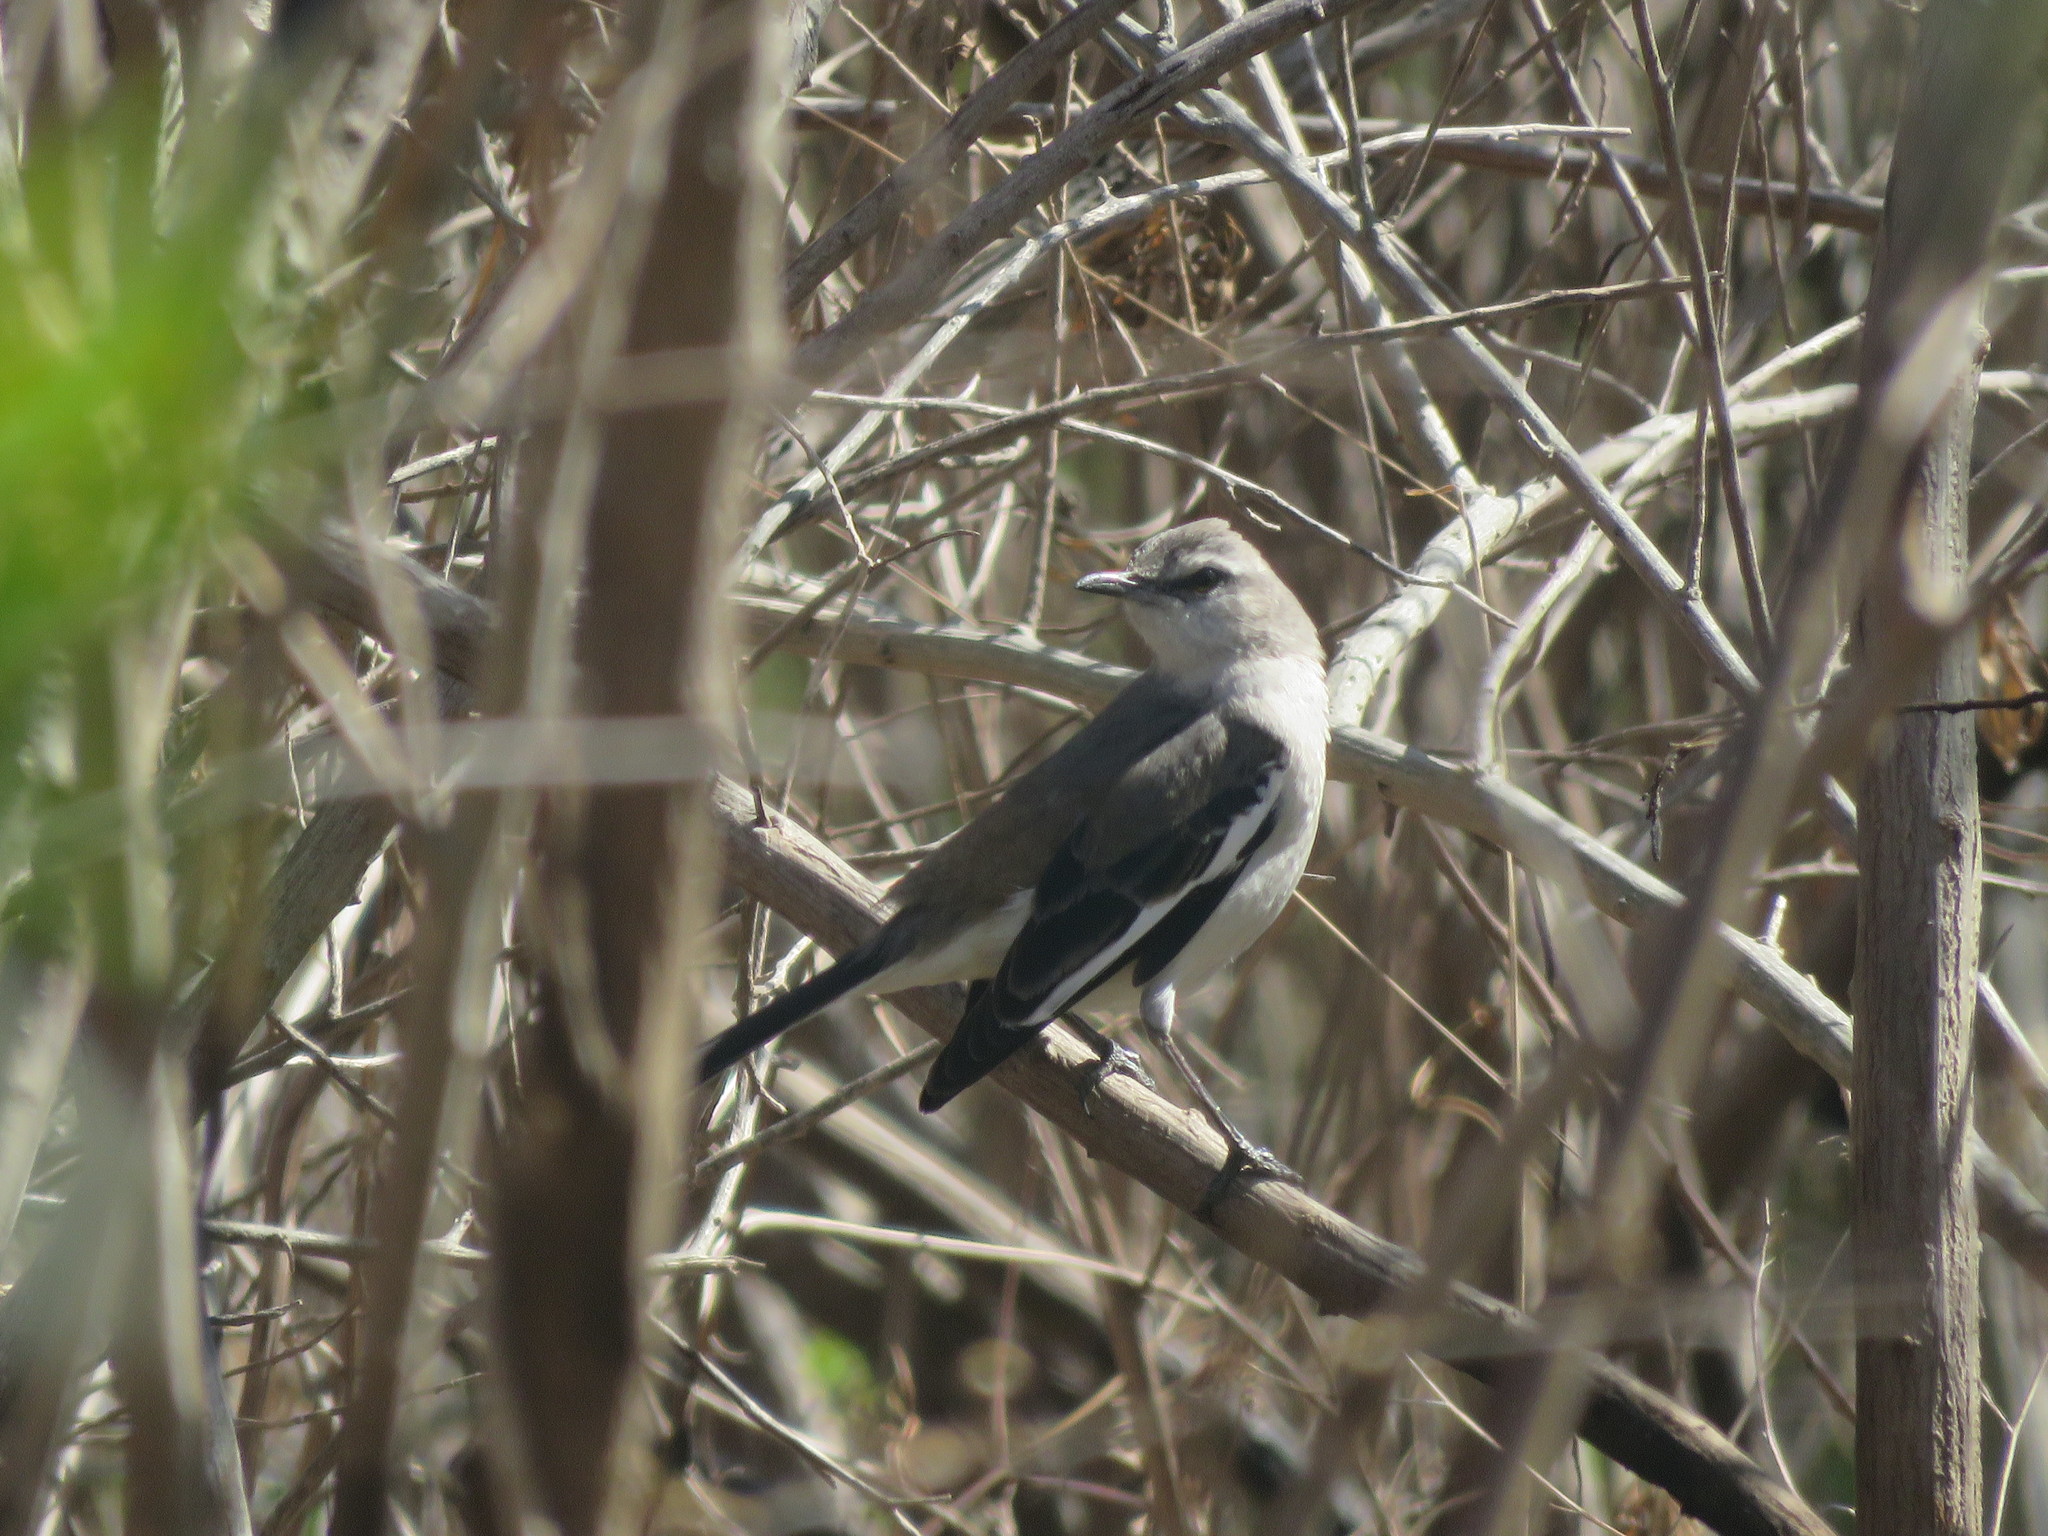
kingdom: Animalia
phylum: Chordata
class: Aves
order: Passeriformes
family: Mimidae
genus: Mimus
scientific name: Mimus triurus
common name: White-banded mockingbird
